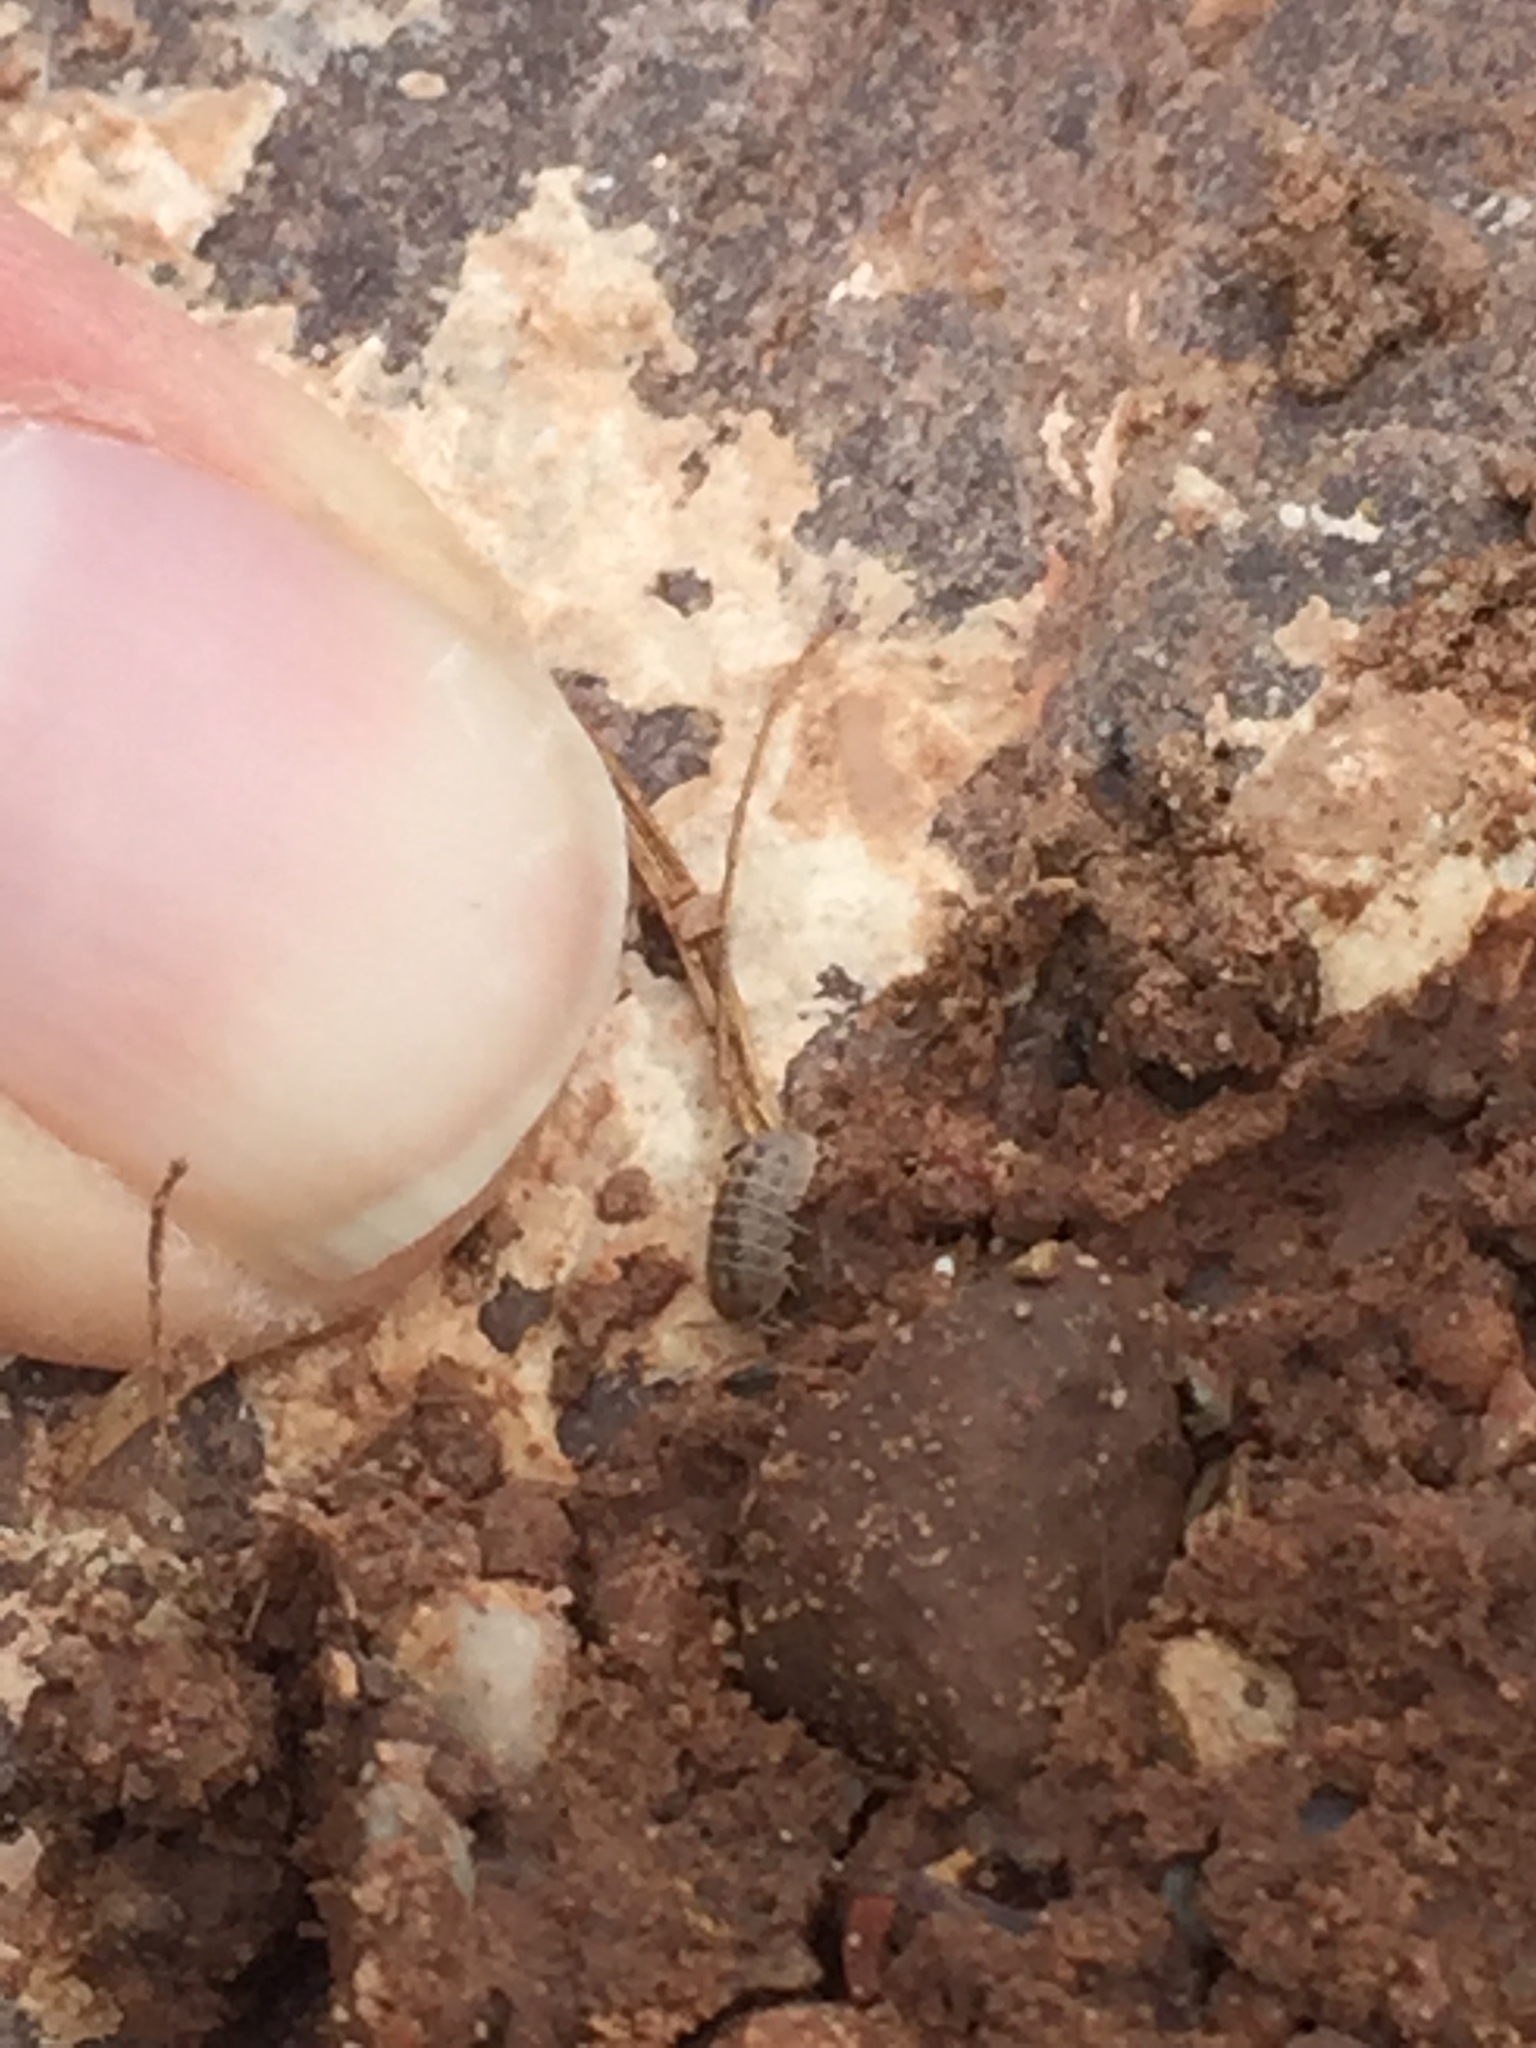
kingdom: Animalia
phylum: Arthropoda
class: Malacostraca
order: Isopoda
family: Armadillidiidae
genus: Armadillidium
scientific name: Armadillidium vulgare
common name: Common pill woodlouse
